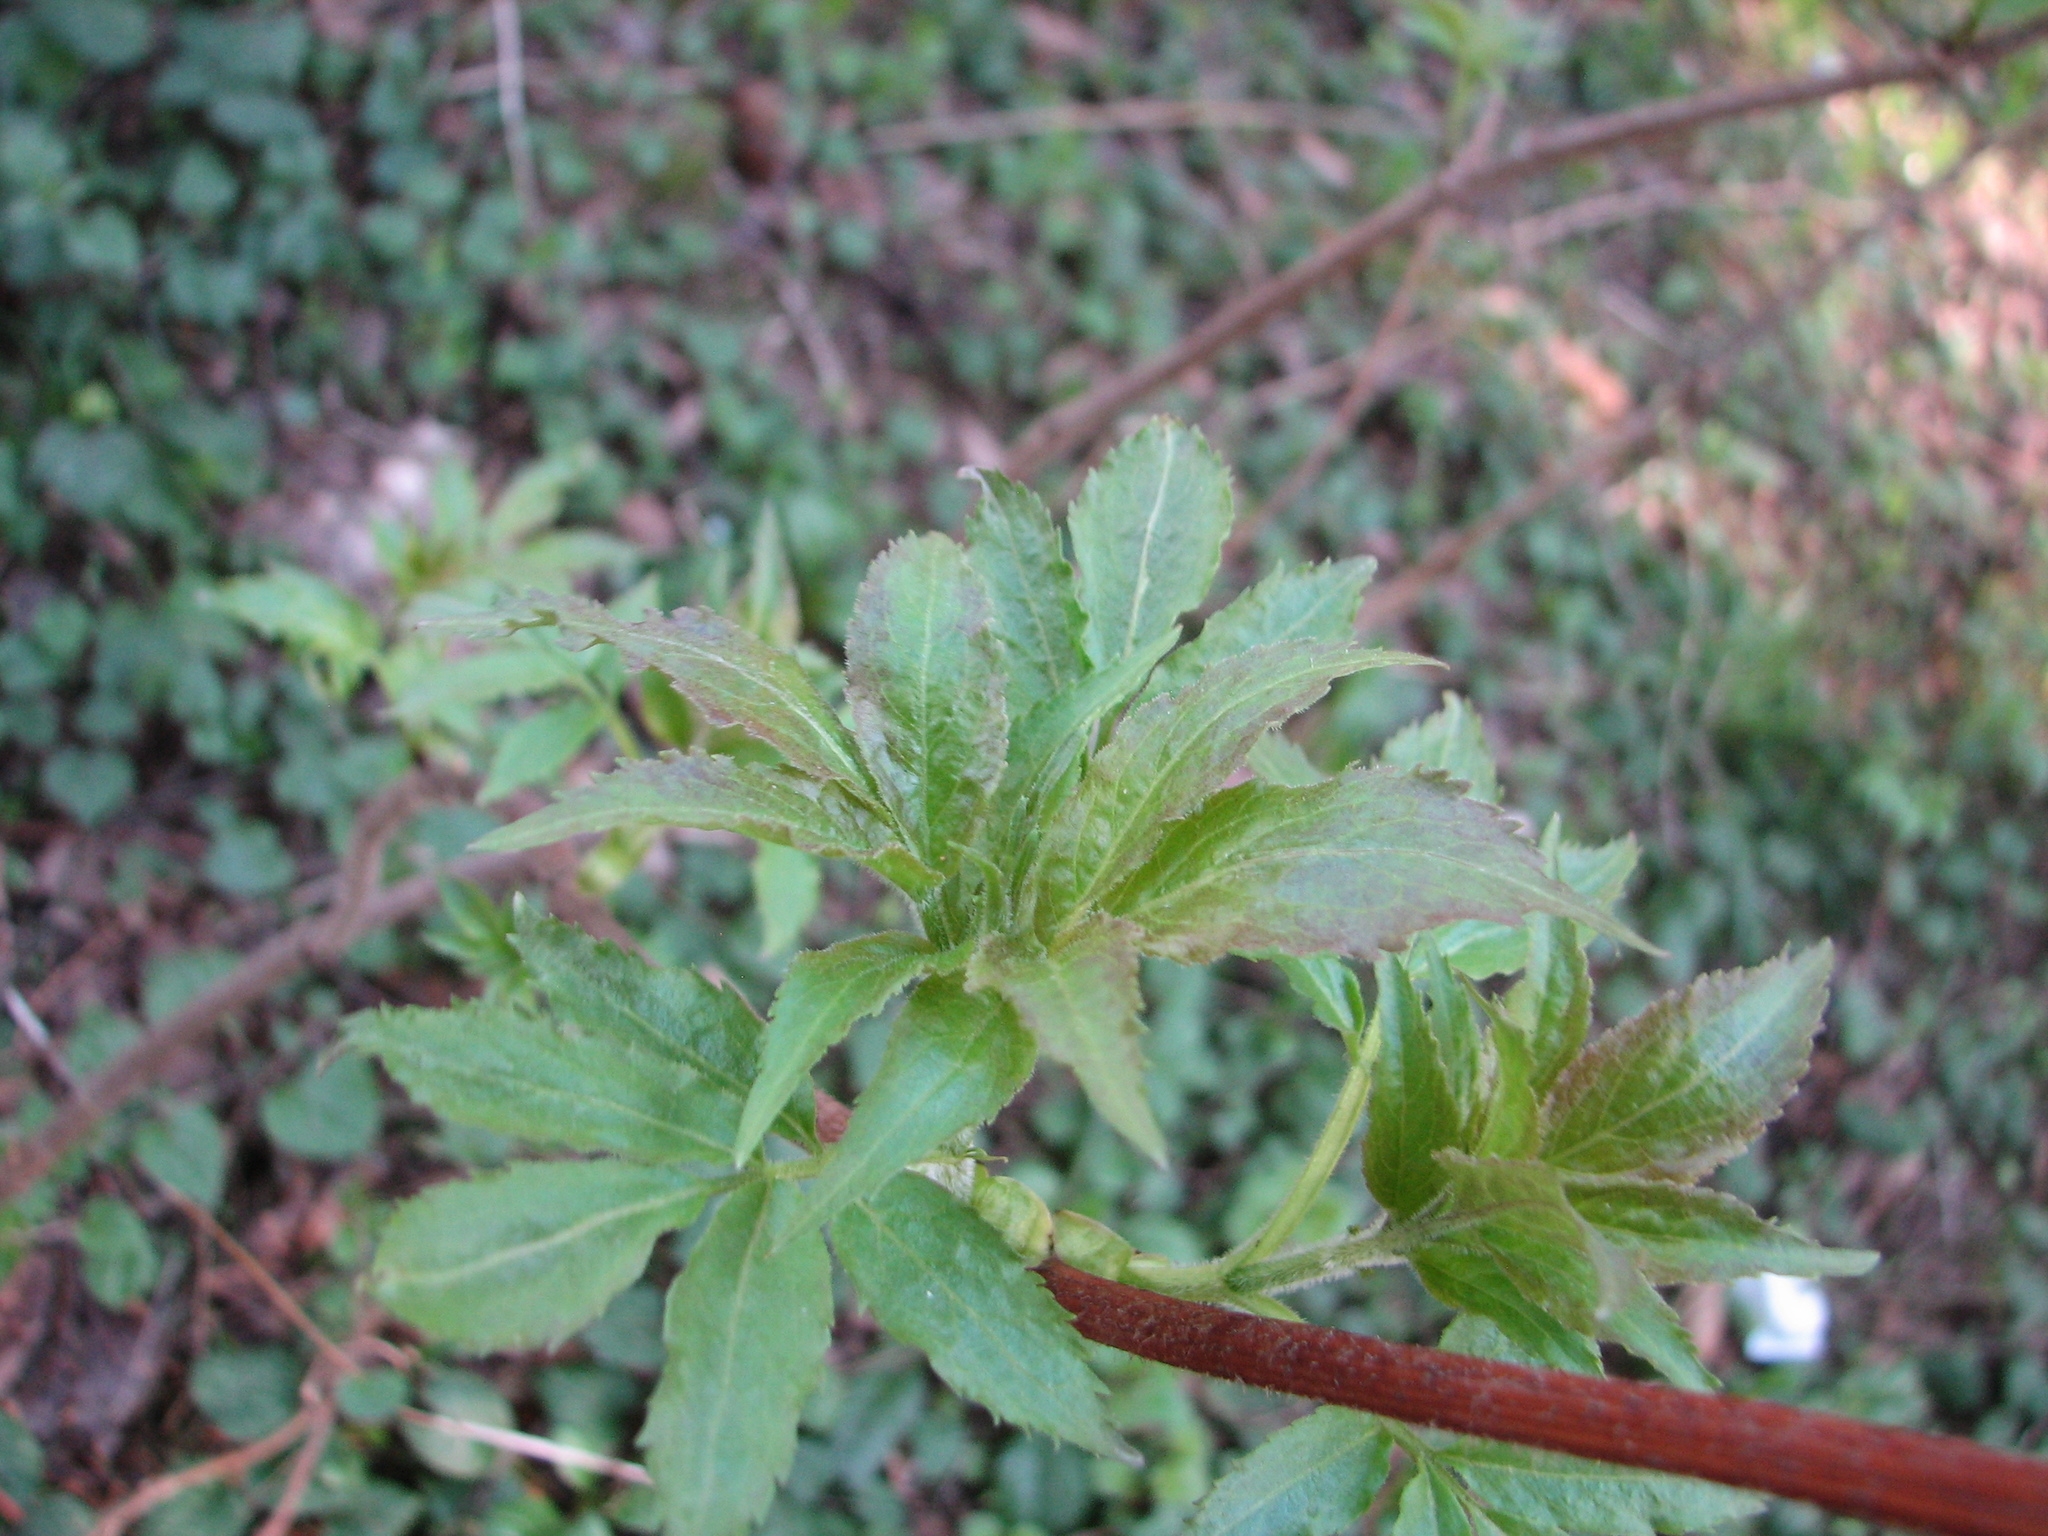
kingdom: Plantae
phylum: Tracheophyta
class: Magnoliopsida
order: Dipsacales
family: Viburnaceae
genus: Sambucus
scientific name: Sambucus racemosa
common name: Red-berried elder
